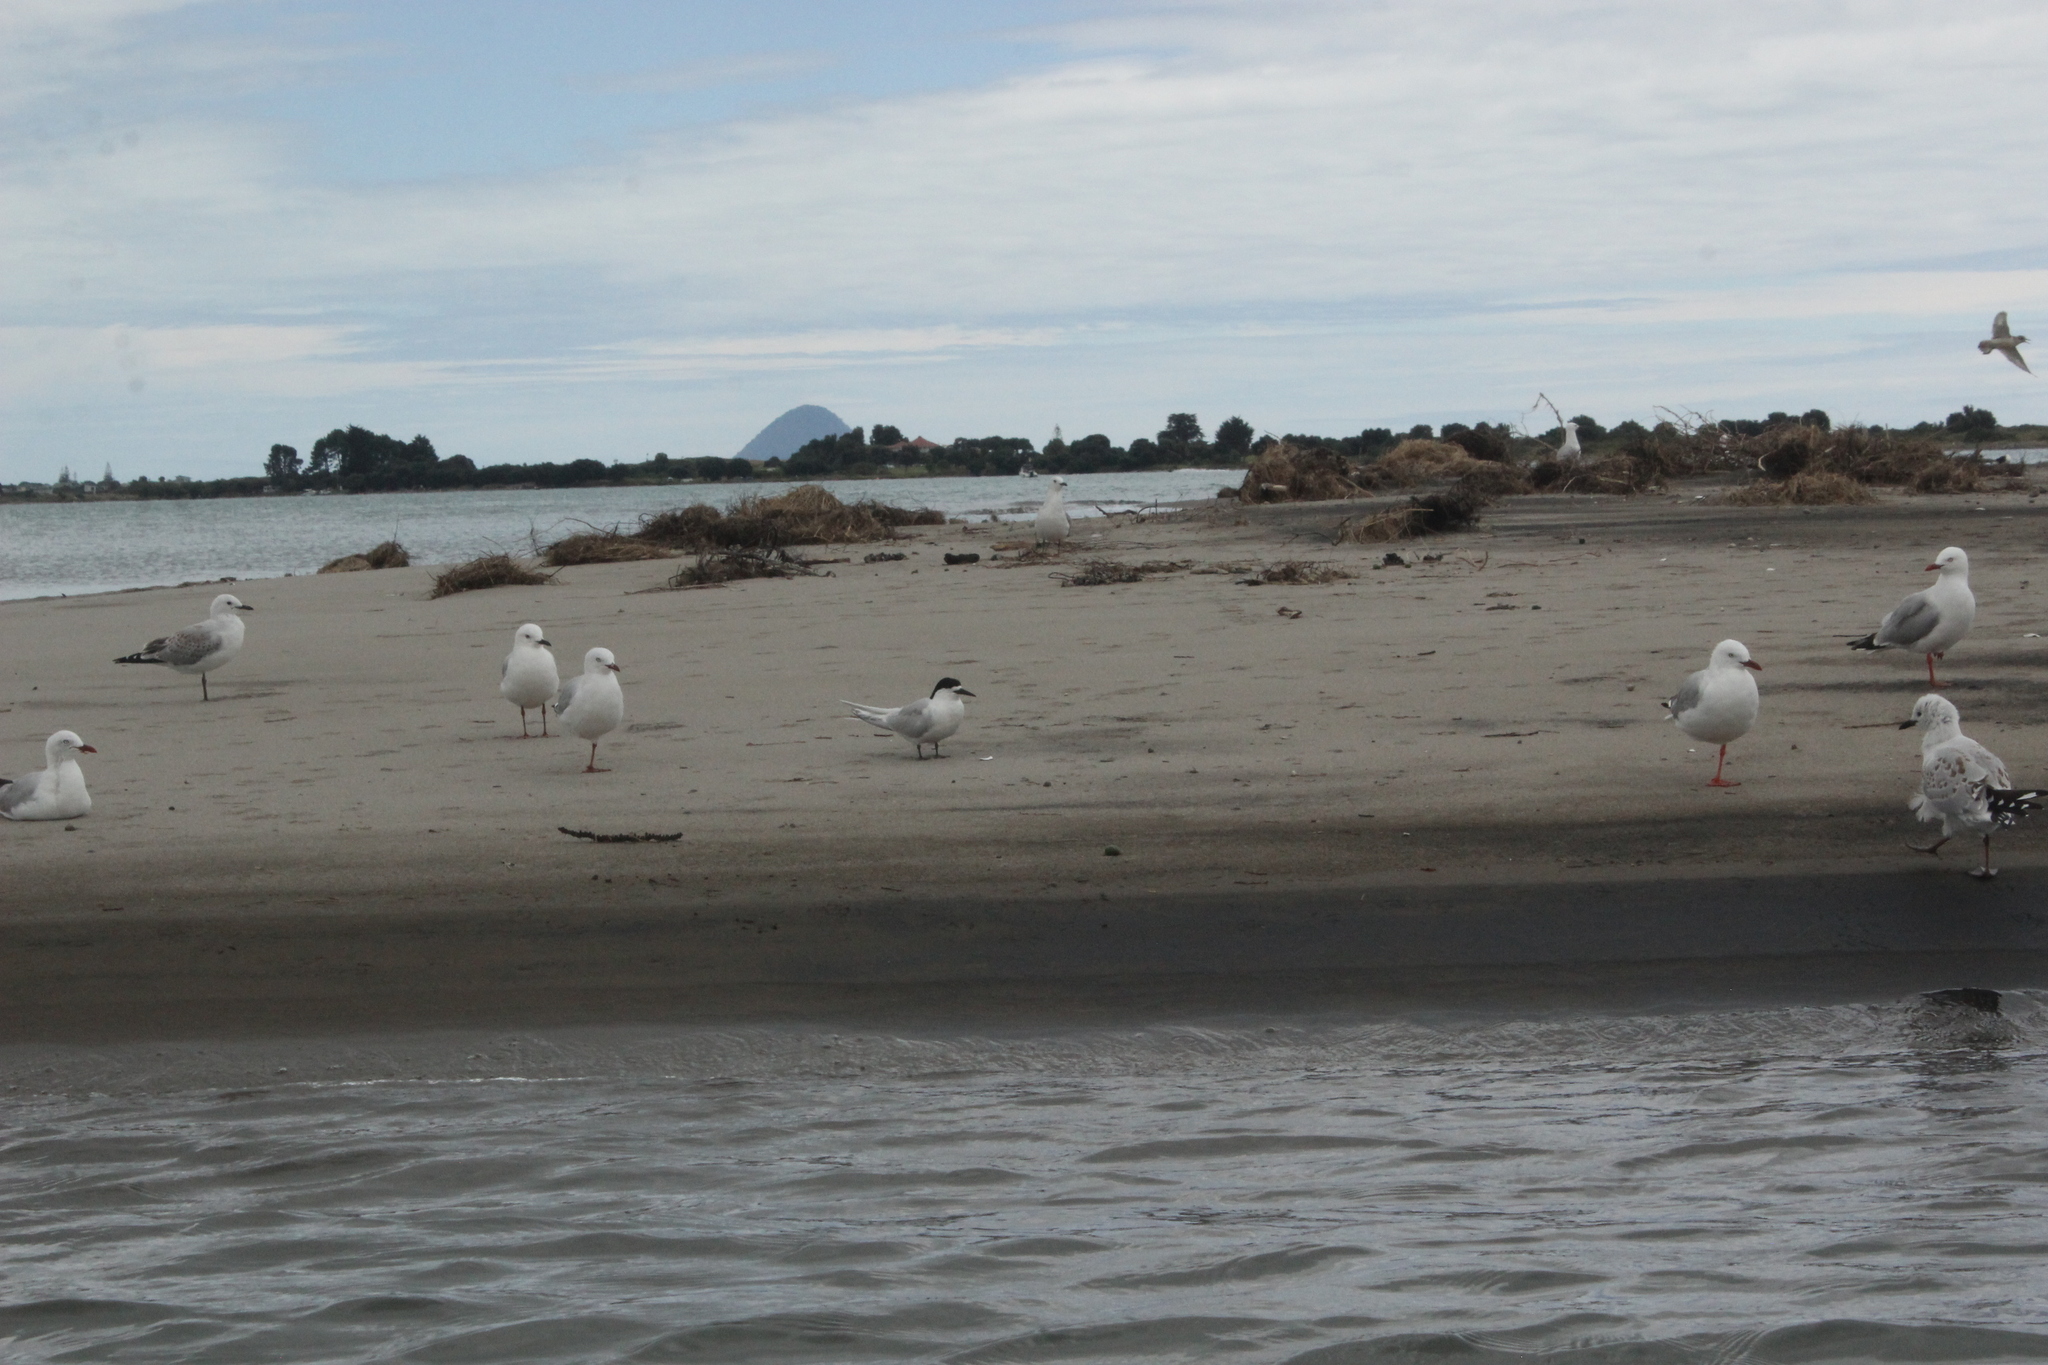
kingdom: Animalia
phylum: Chordata
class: Aves
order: Charadriiformes
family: Laridae
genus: Sterna
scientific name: Sterna striata
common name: White-fronted tern
